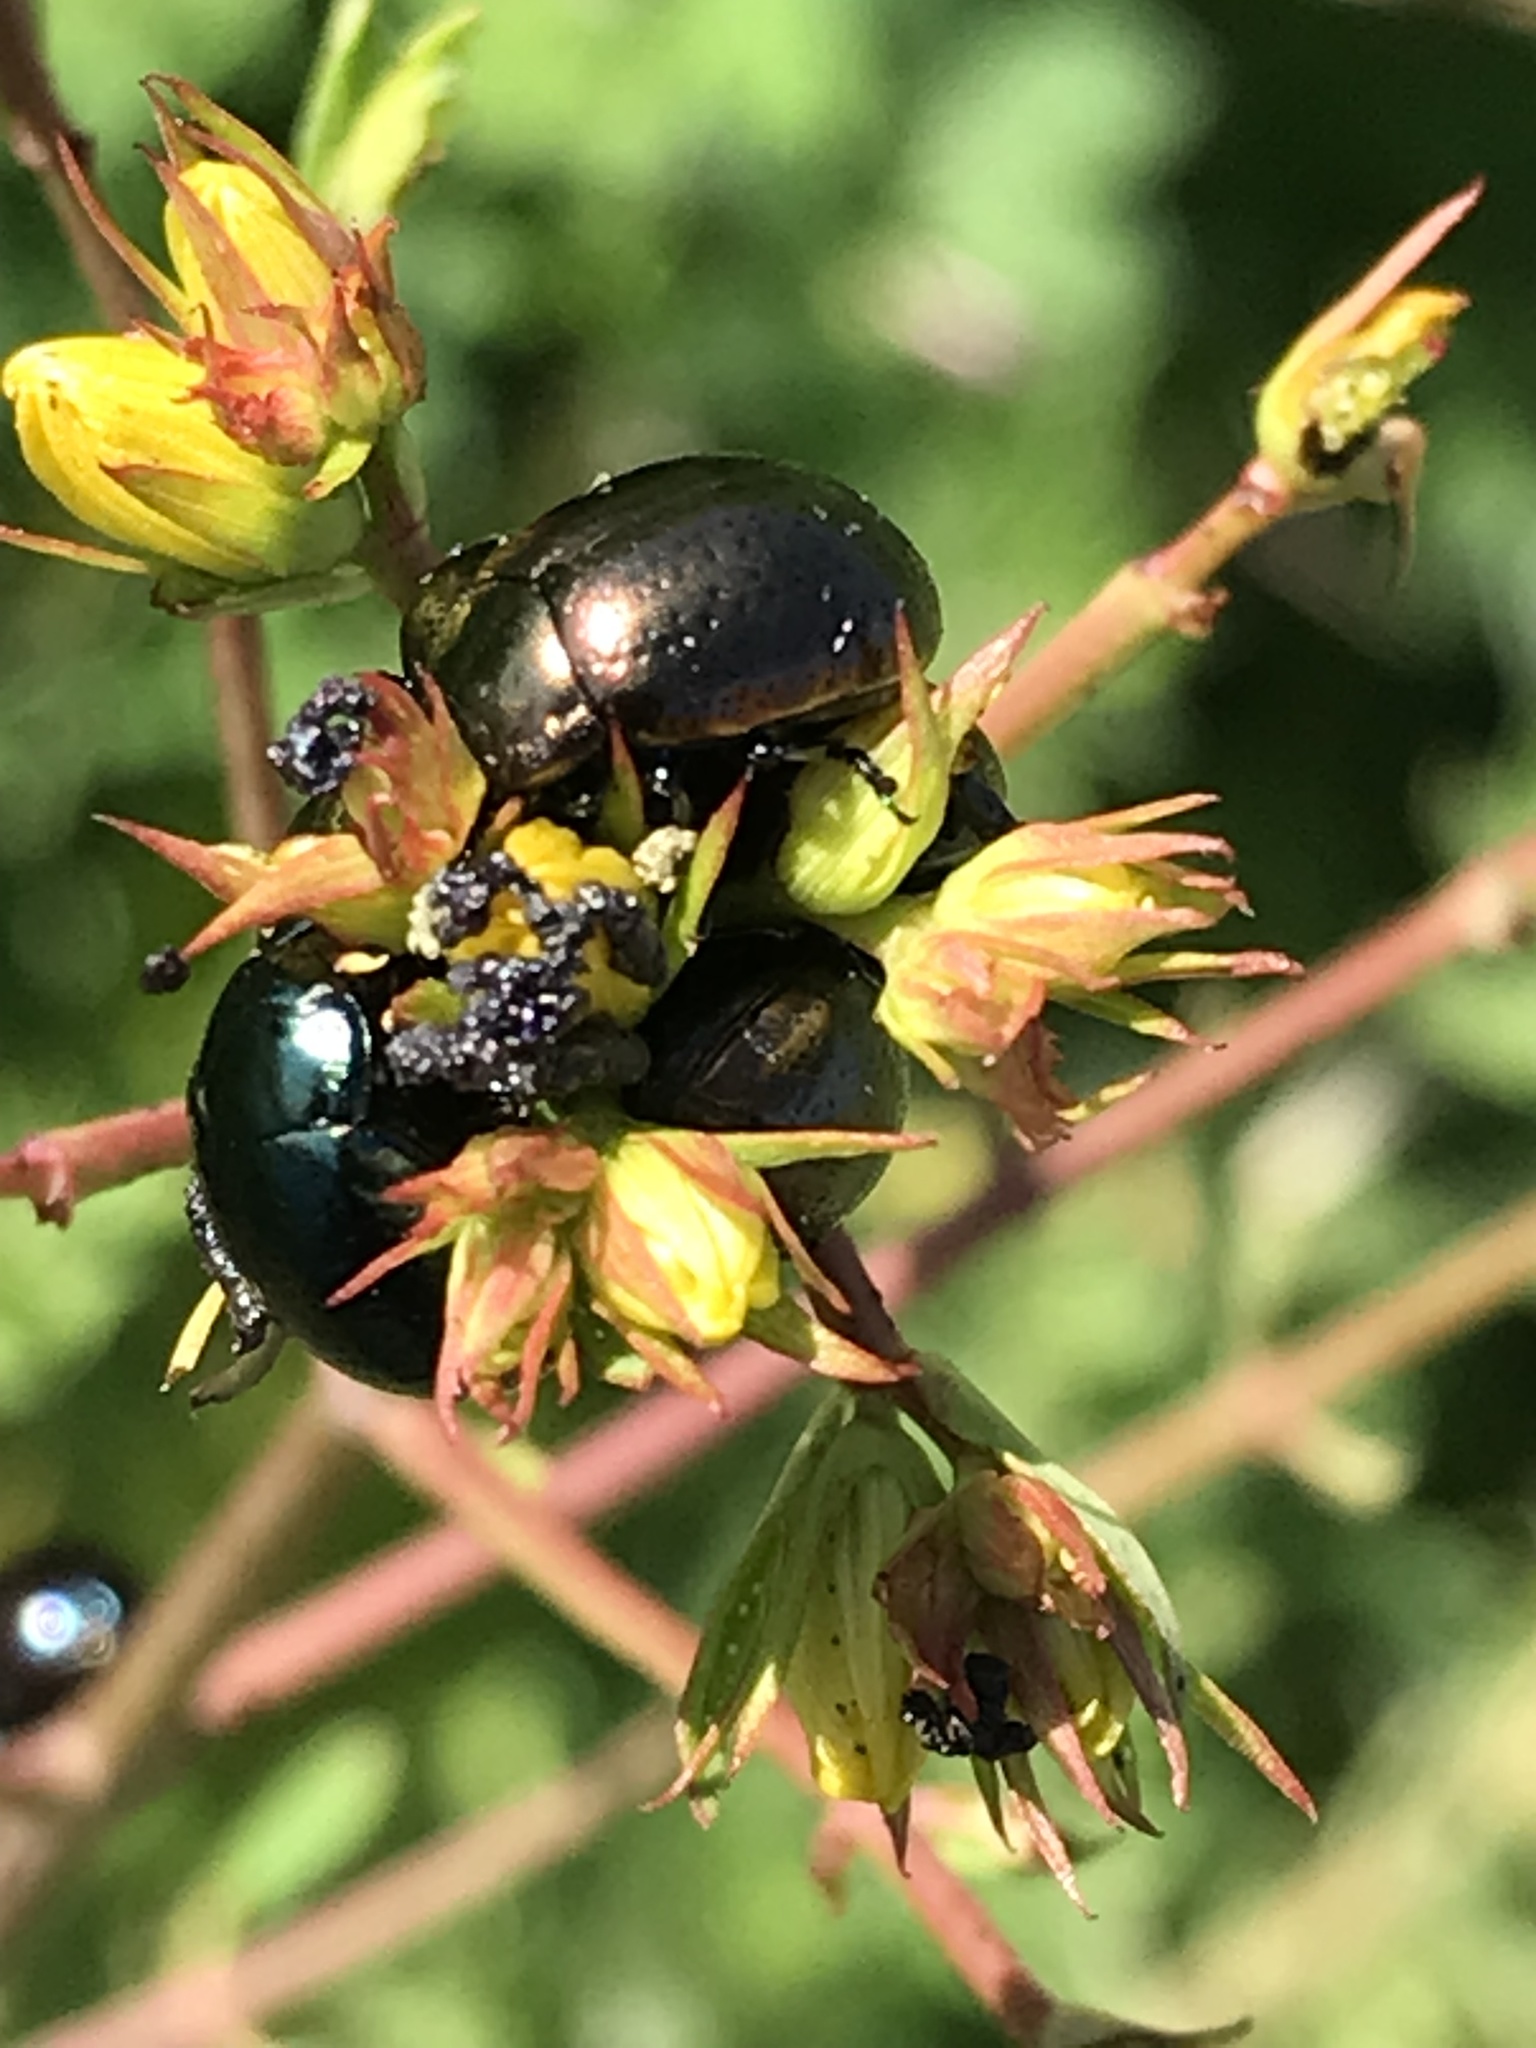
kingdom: Animalia
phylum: Arthropoda
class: Insecta
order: Coleoptera
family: Chrysomelidae
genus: Chrysolina
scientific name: Chrysolina hyperici
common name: St. johnswort beetle
